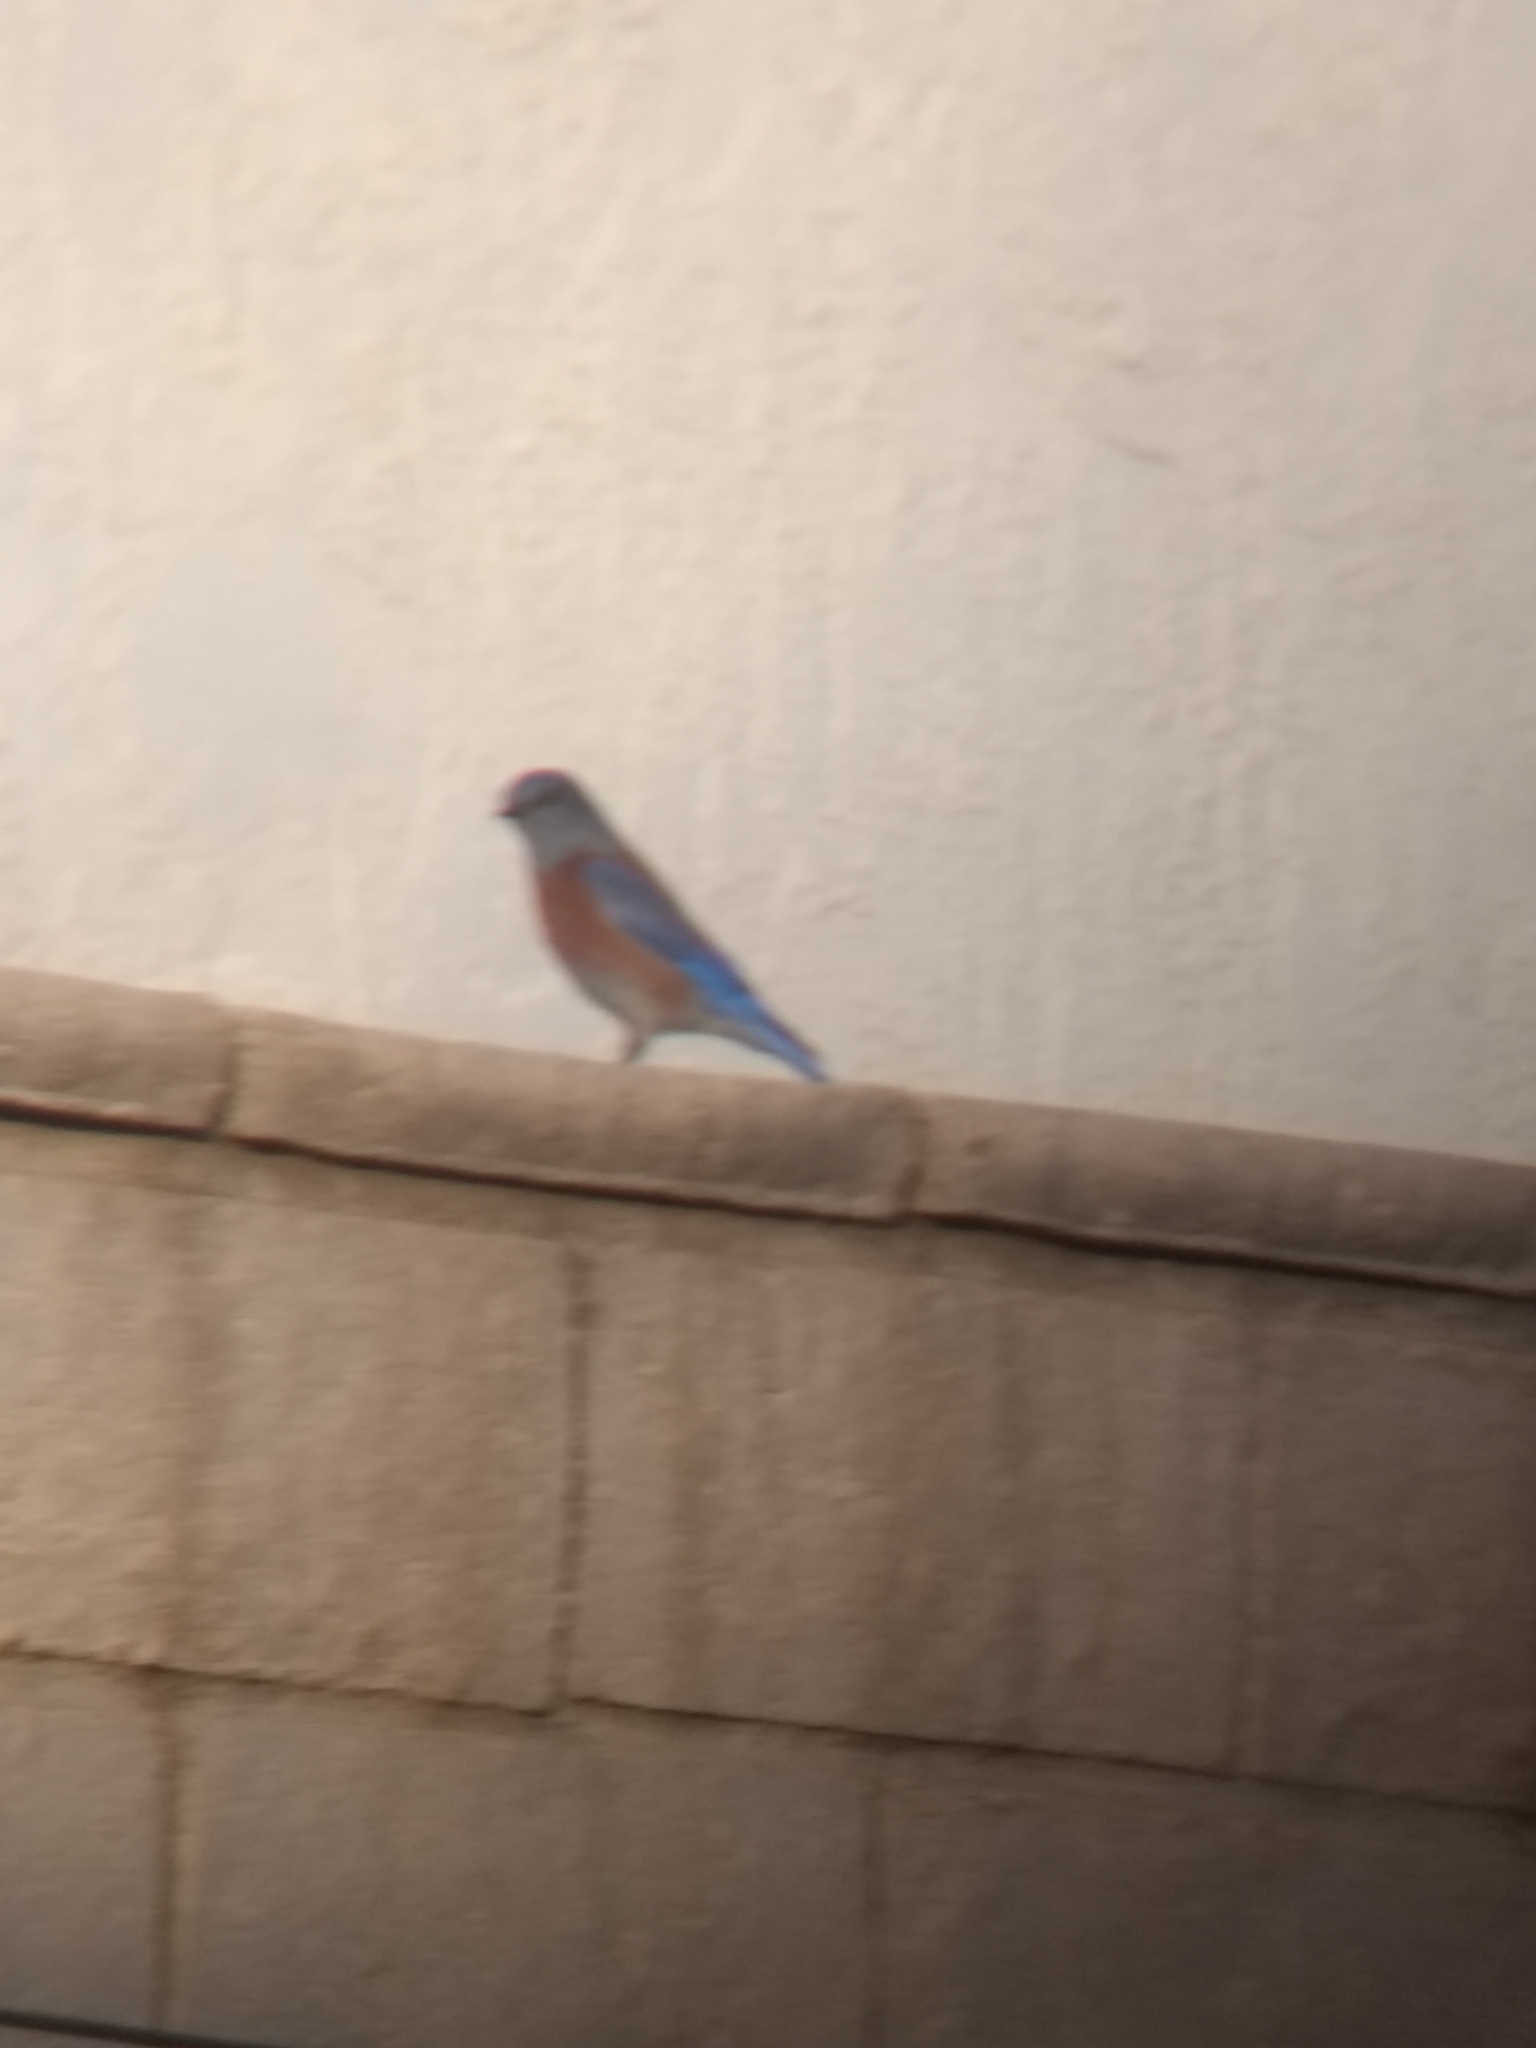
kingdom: Animalia
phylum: Chordata
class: Aves
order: Passeriformes
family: Turdidae
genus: Sialia
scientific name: Sialia mexicana
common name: Western bluebird
